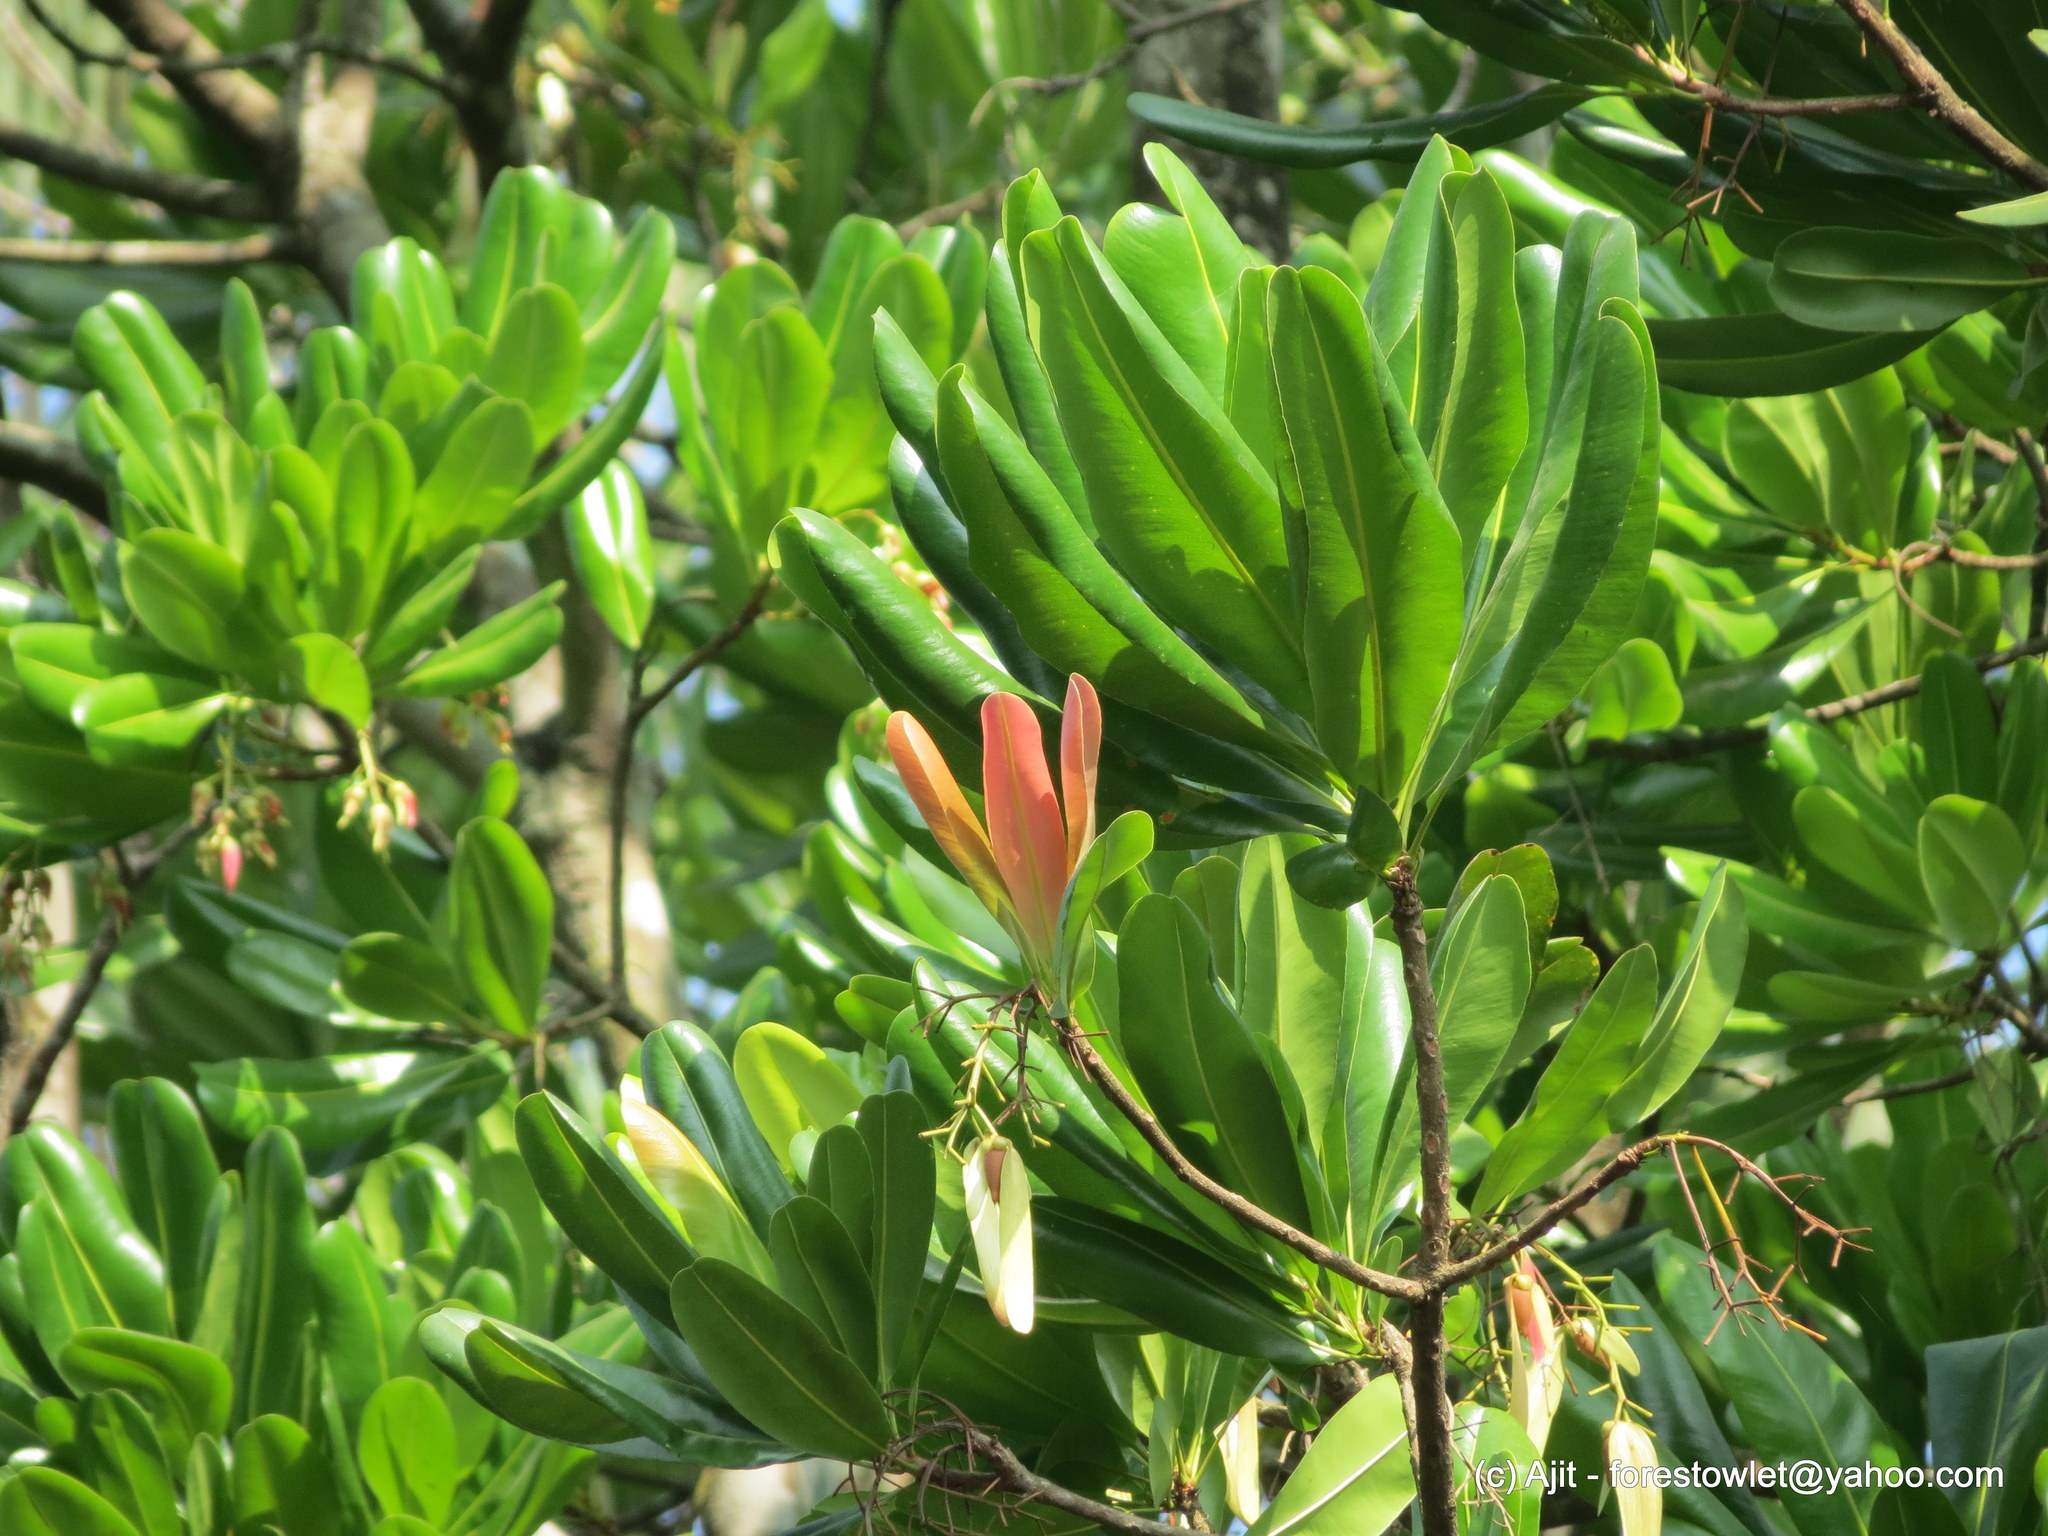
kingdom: Plantae
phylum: Tracheophyta
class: Magnoliopsida
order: Malpighiales
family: Ochnaceae
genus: Lophira
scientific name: Lophira alata
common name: Azobe
